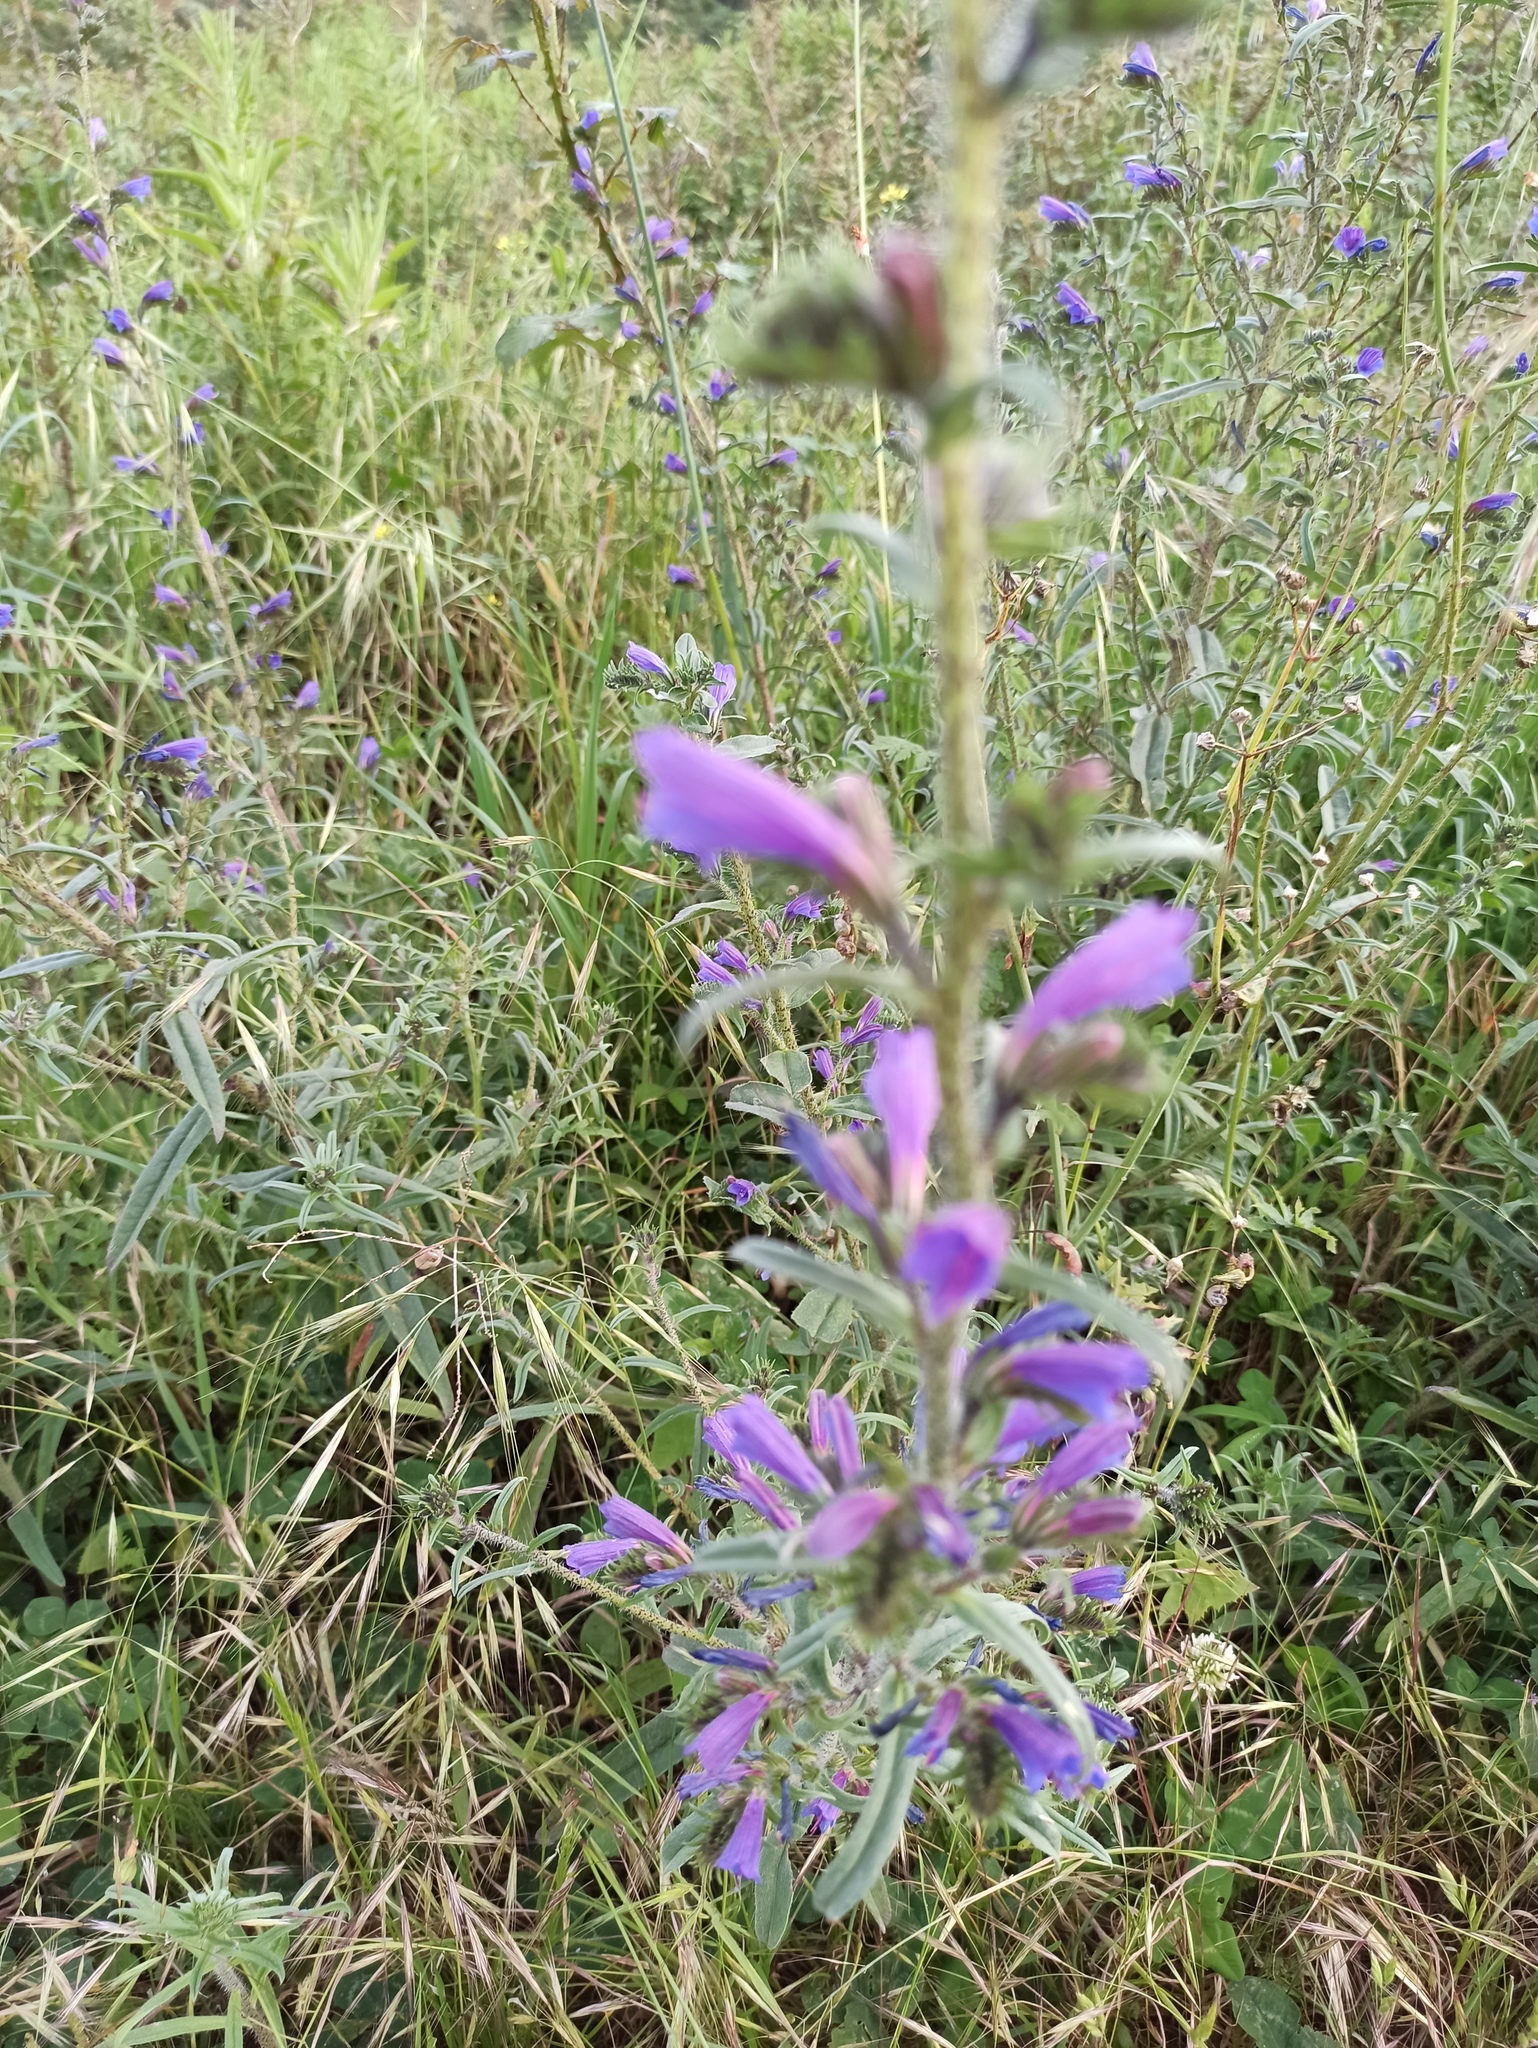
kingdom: Plantae
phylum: Tracheophyta
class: Magnoliopsida
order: Boraginales
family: Boraginaceae
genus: Echium
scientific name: Echium tuberculatum
